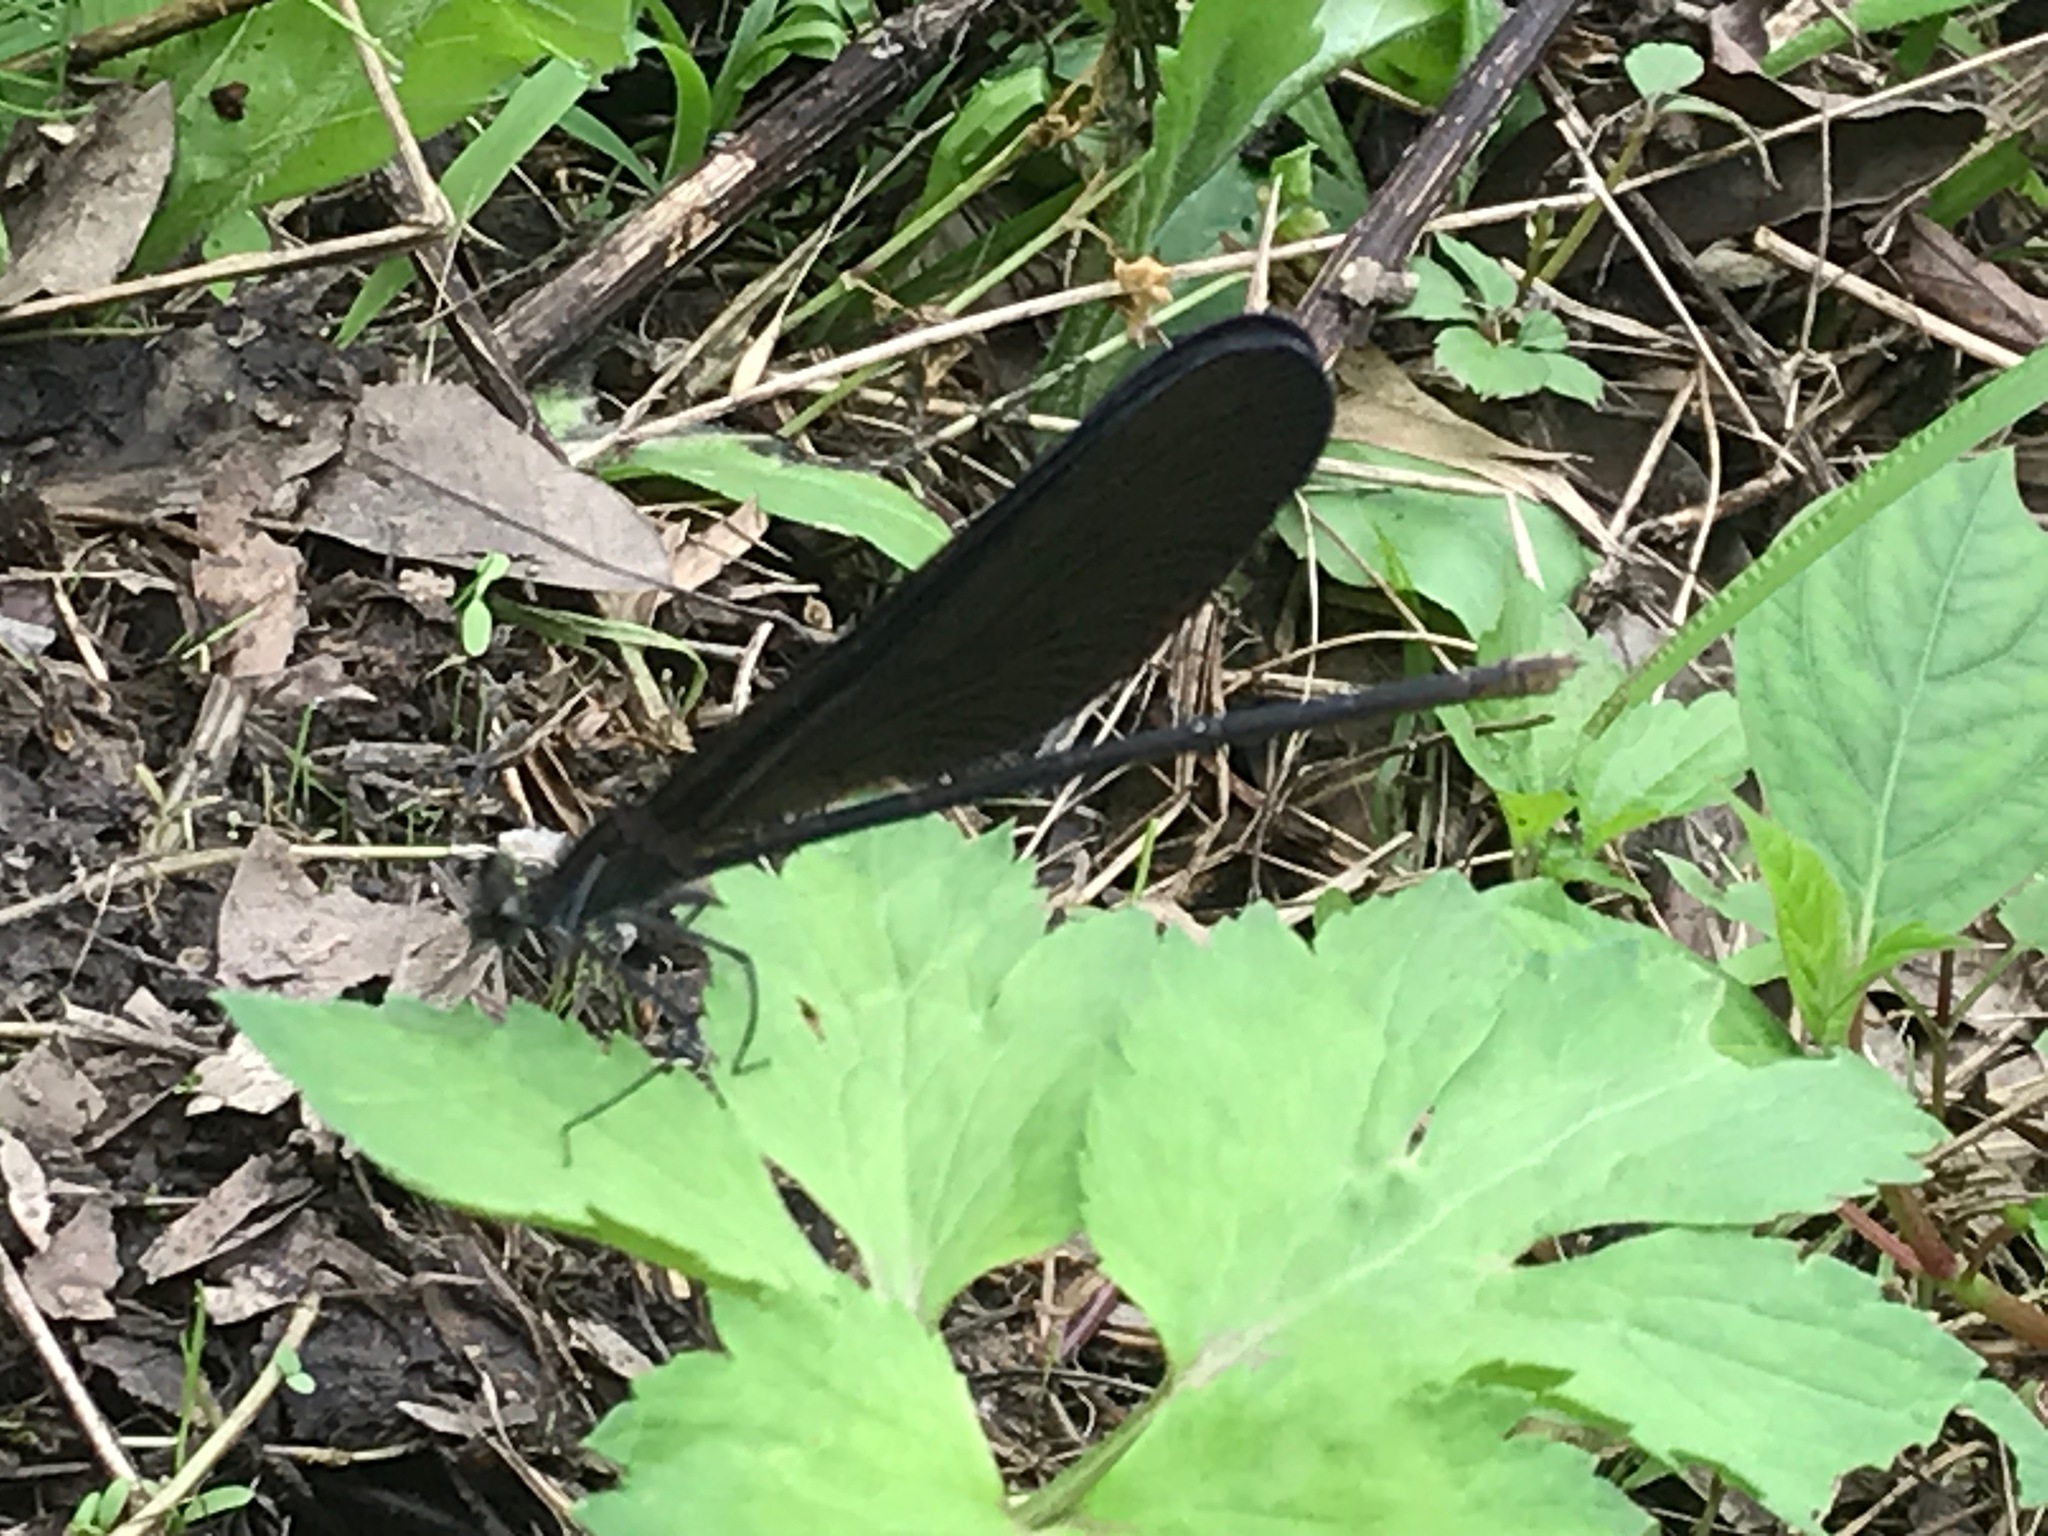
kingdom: Animalia
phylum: Arthropoda
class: Insecta
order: Odonata
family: Calopterygidae
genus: Atrocalopteryx
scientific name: Atrocalopteryx atrata
